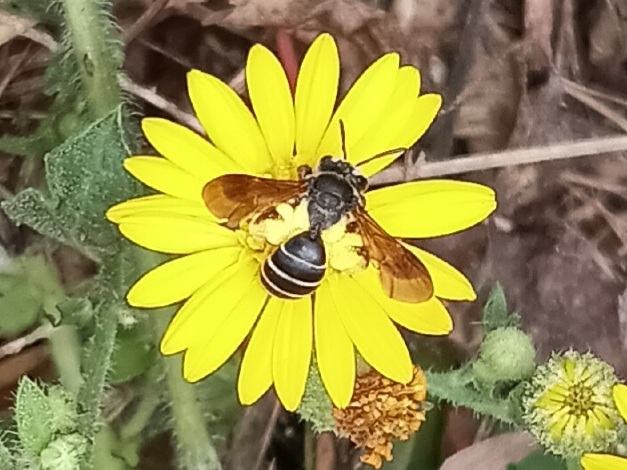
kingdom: Animalia
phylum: Arthropoda
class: Insecta
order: Hymenoptera
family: Andrenidae
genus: Andrena
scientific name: Andrena fulvipennis
